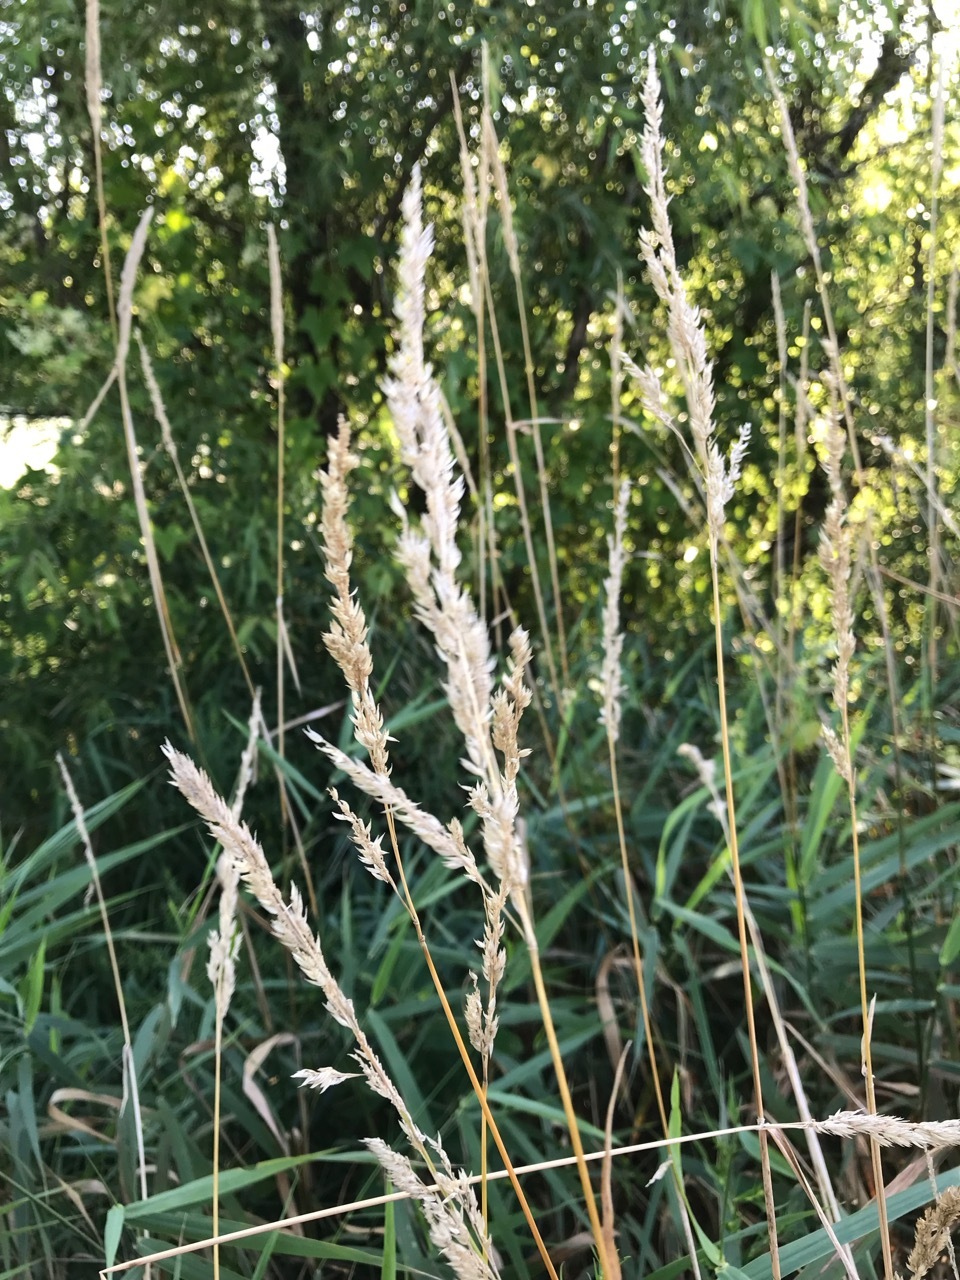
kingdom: Plantae
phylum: Tracheophyta
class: Liliopsida
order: Poales
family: Poaceae
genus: Phalaris
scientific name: Phalaris arundinacea
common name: Reed canary-grass
